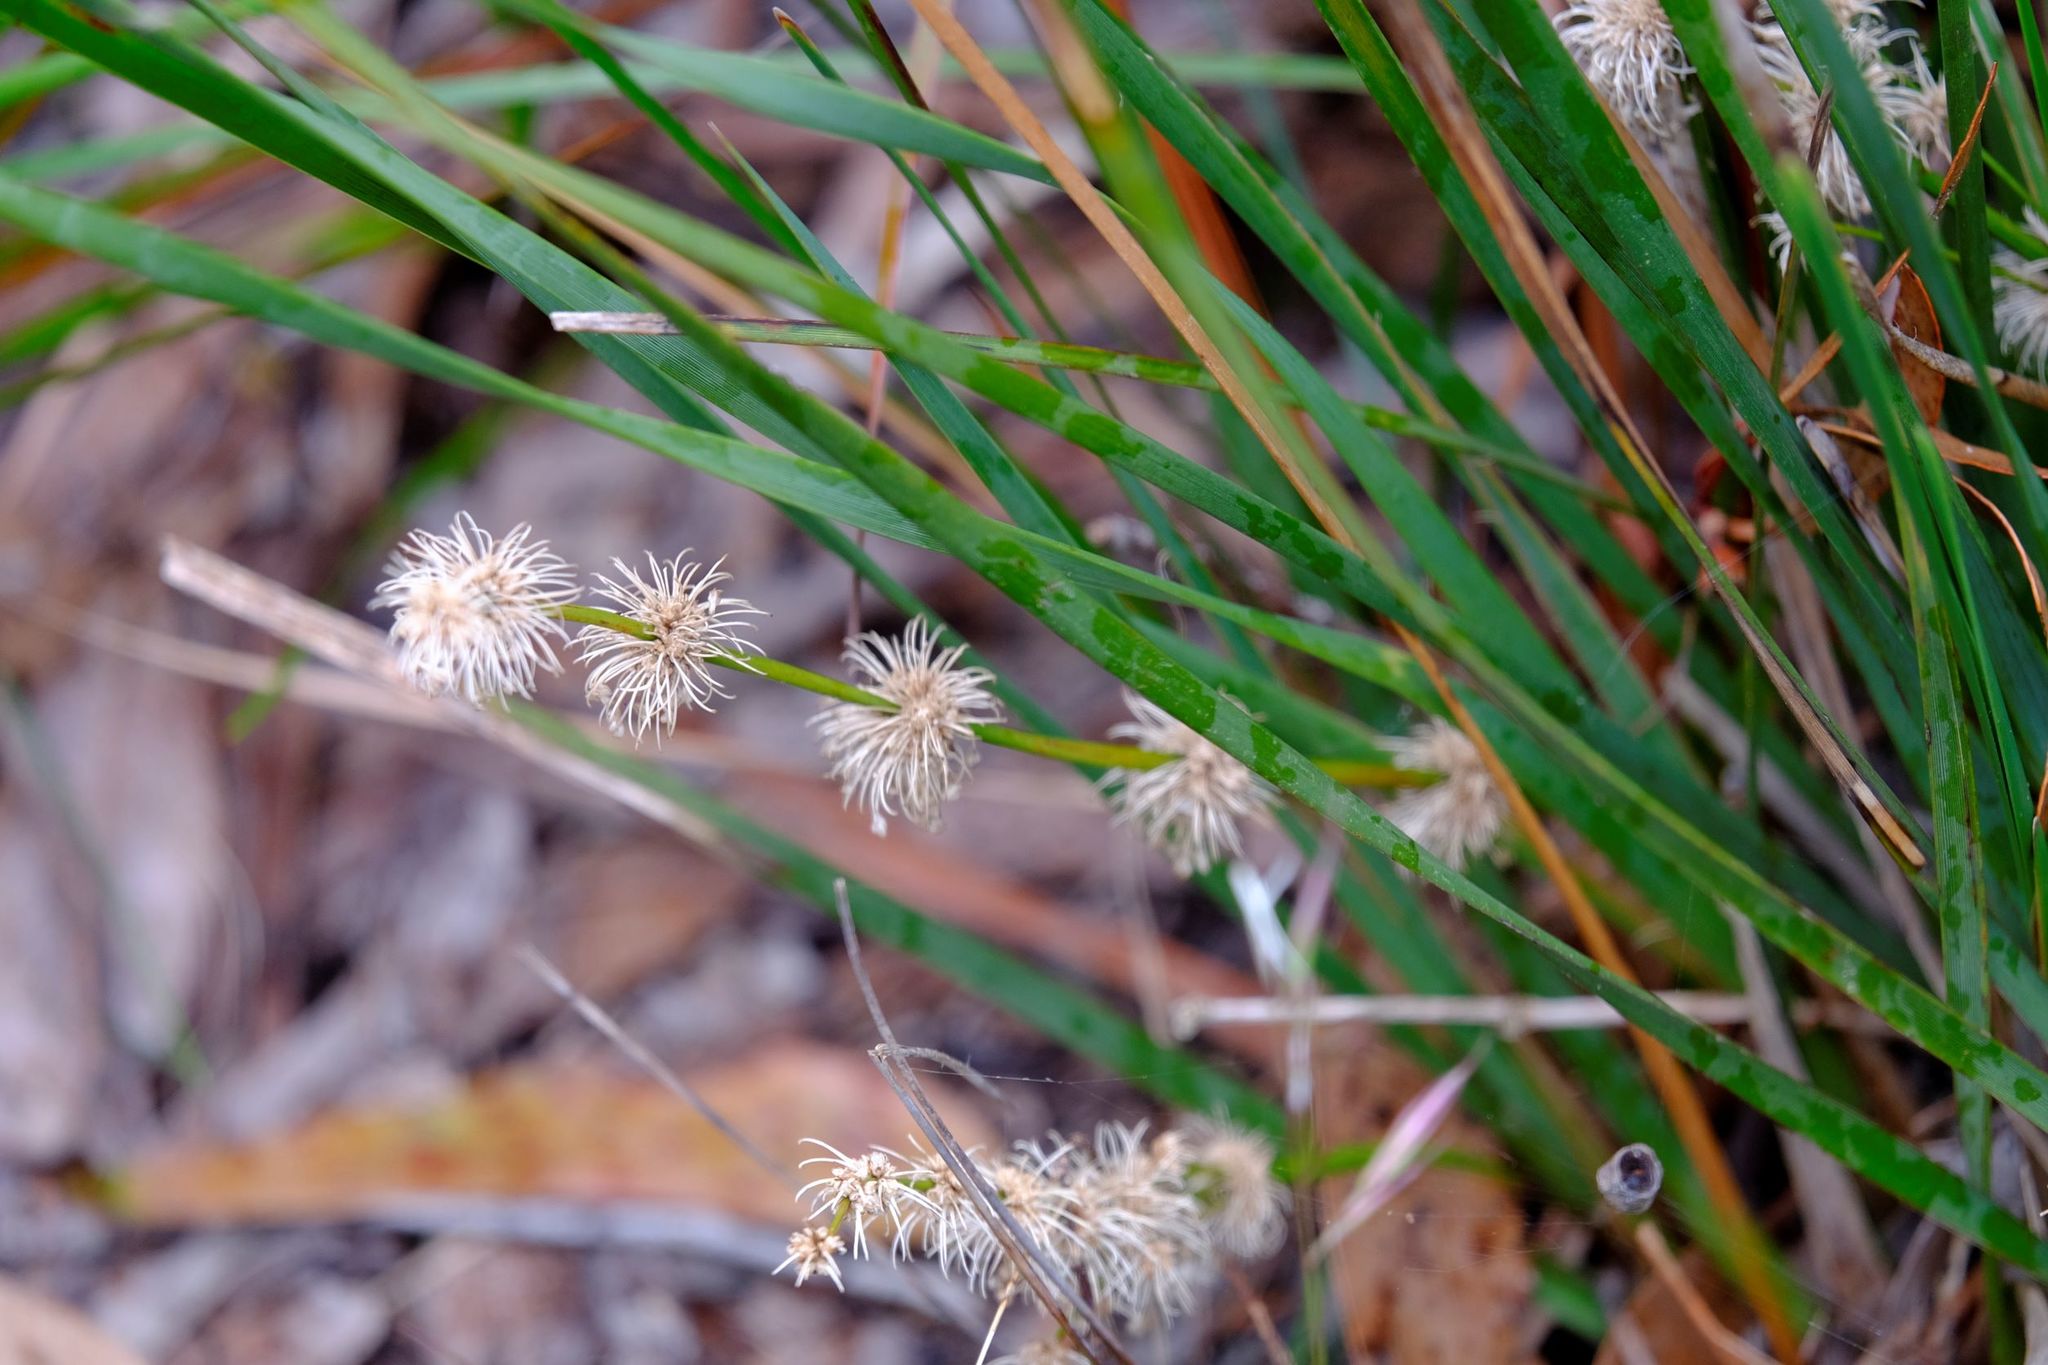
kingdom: Plantae
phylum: Tracheophyta
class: Liliopsida
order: Asparagales
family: Asparagaceae
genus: Lomandra
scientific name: Lomandra multiflora
